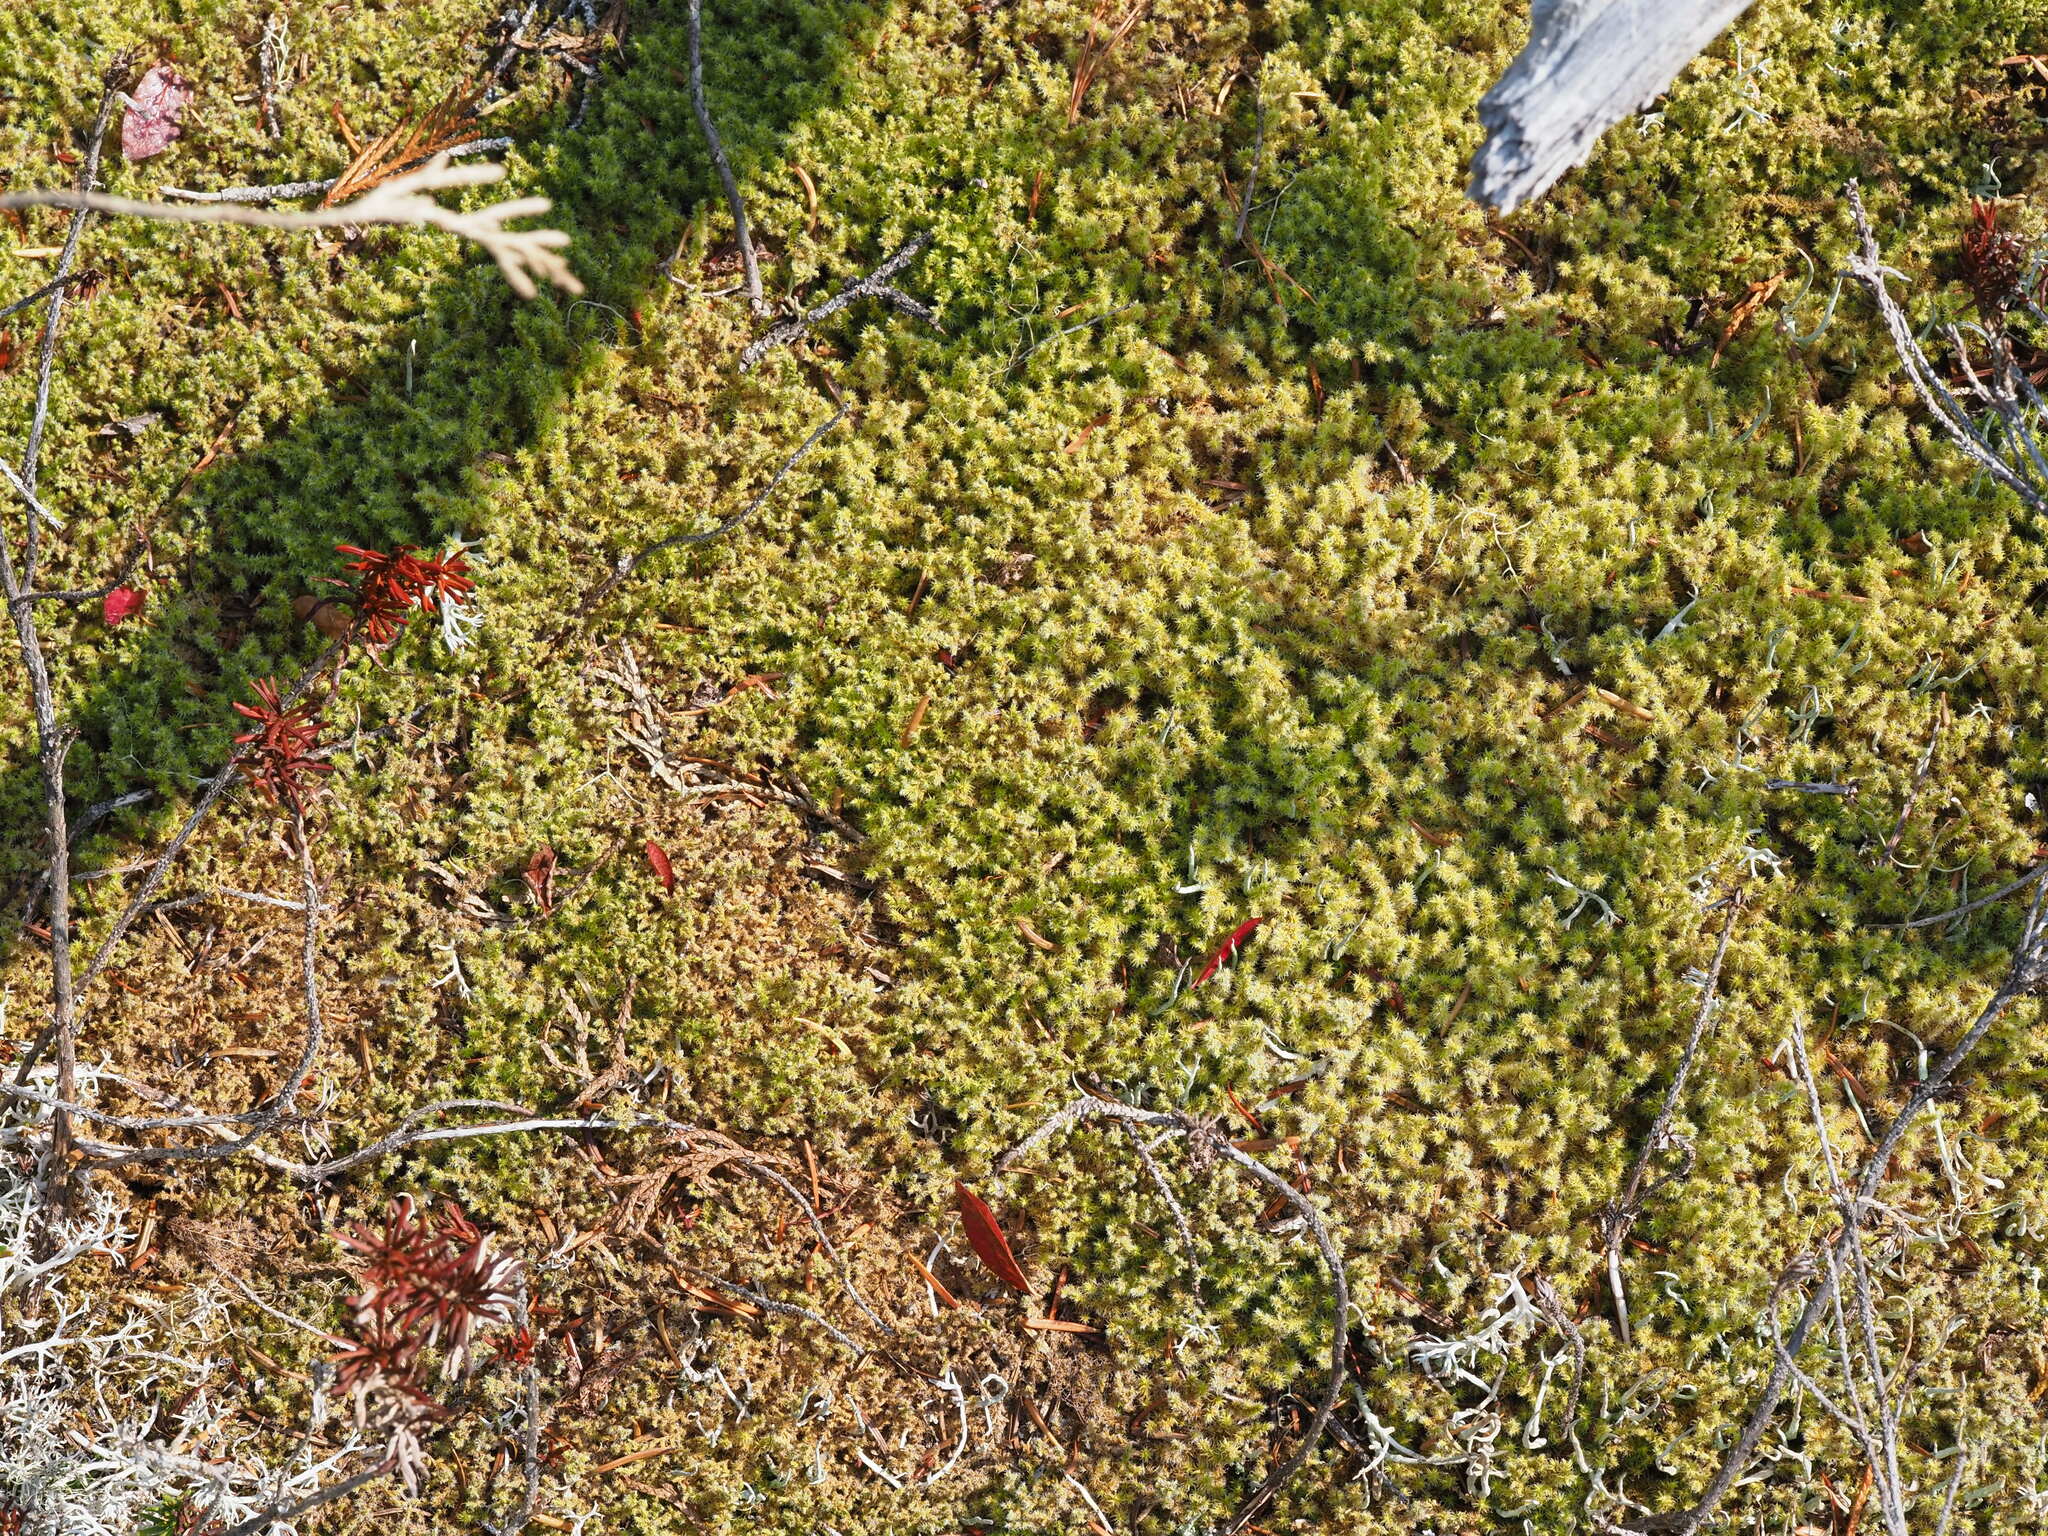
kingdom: Plantae
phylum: Bryophyta
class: Bryopsida
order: Grimmiales
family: Grimmiaceae
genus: Niphotrichum
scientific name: Niphotrichum elongatum
